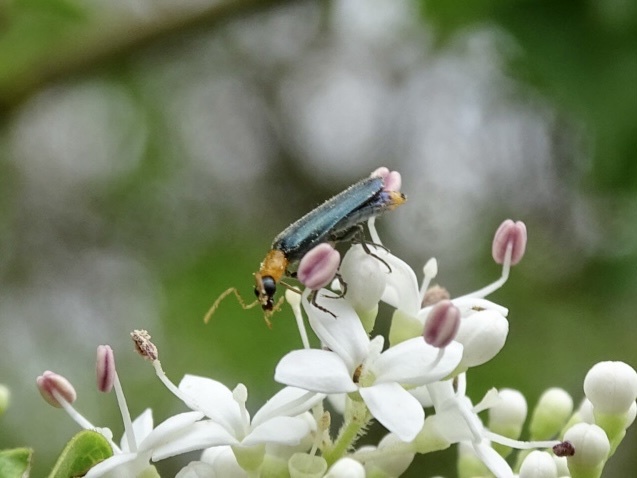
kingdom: Animalia
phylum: Arthropoda
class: Insecta
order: Coleoptera
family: Prionoceridae
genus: Idgia
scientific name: Idgia flavicollis
